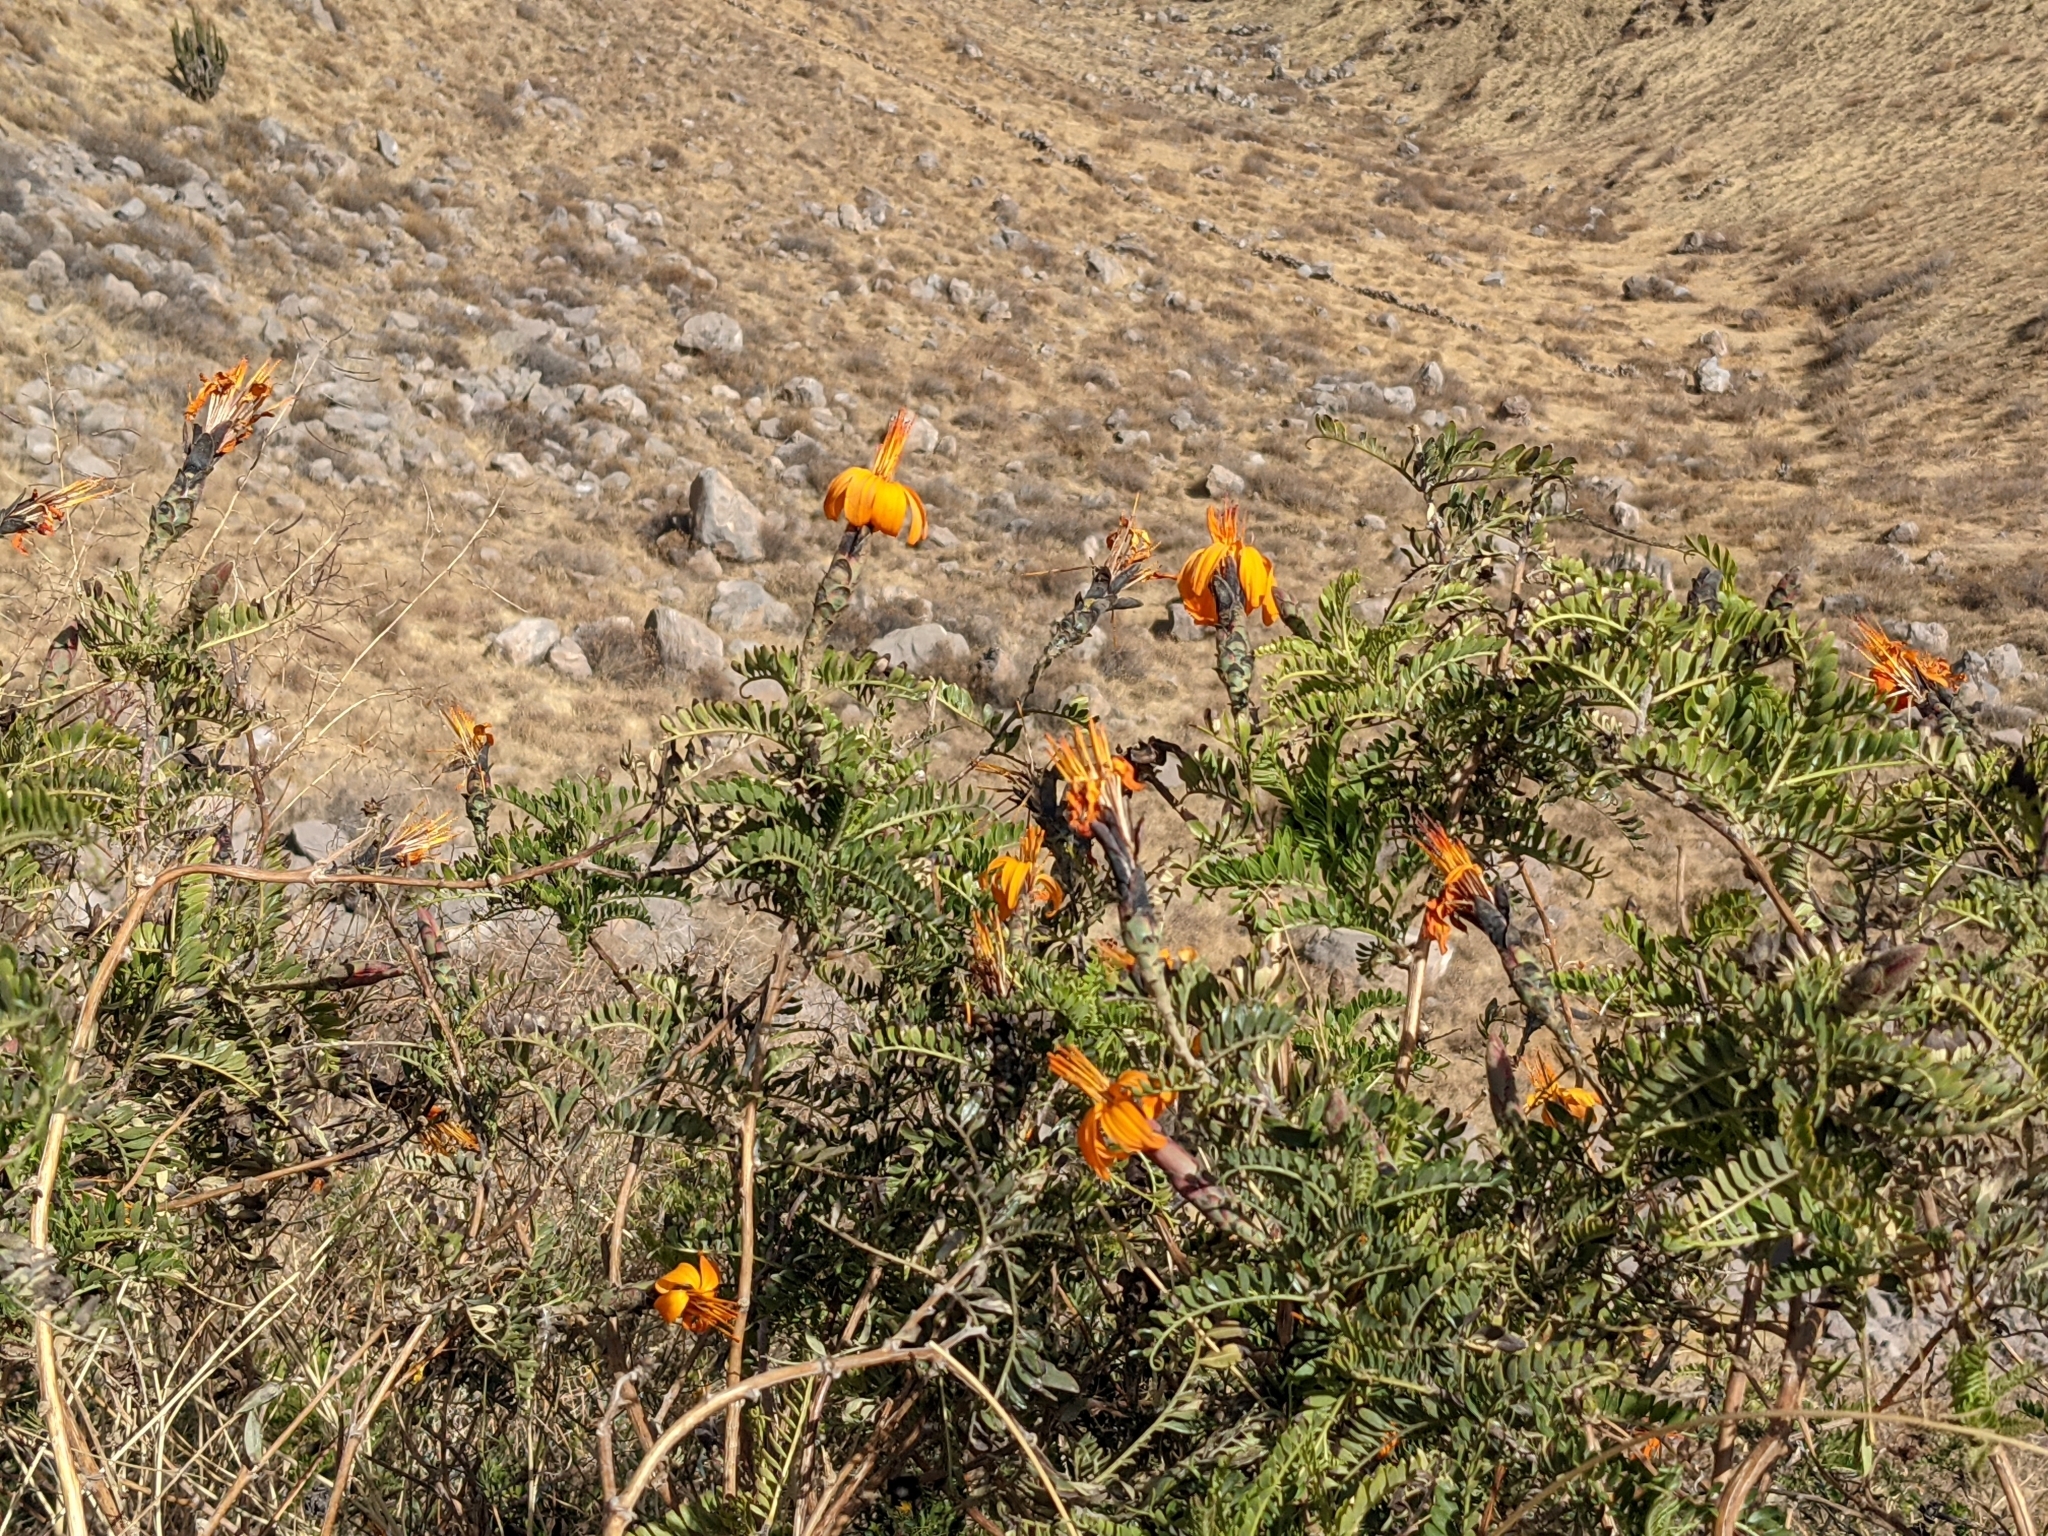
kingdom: Plantae
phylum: Tracheophyta
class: Magnoliopsida
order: Asterales
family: Asteraceae
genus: Mutisia
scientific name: Mutisia acuminata
